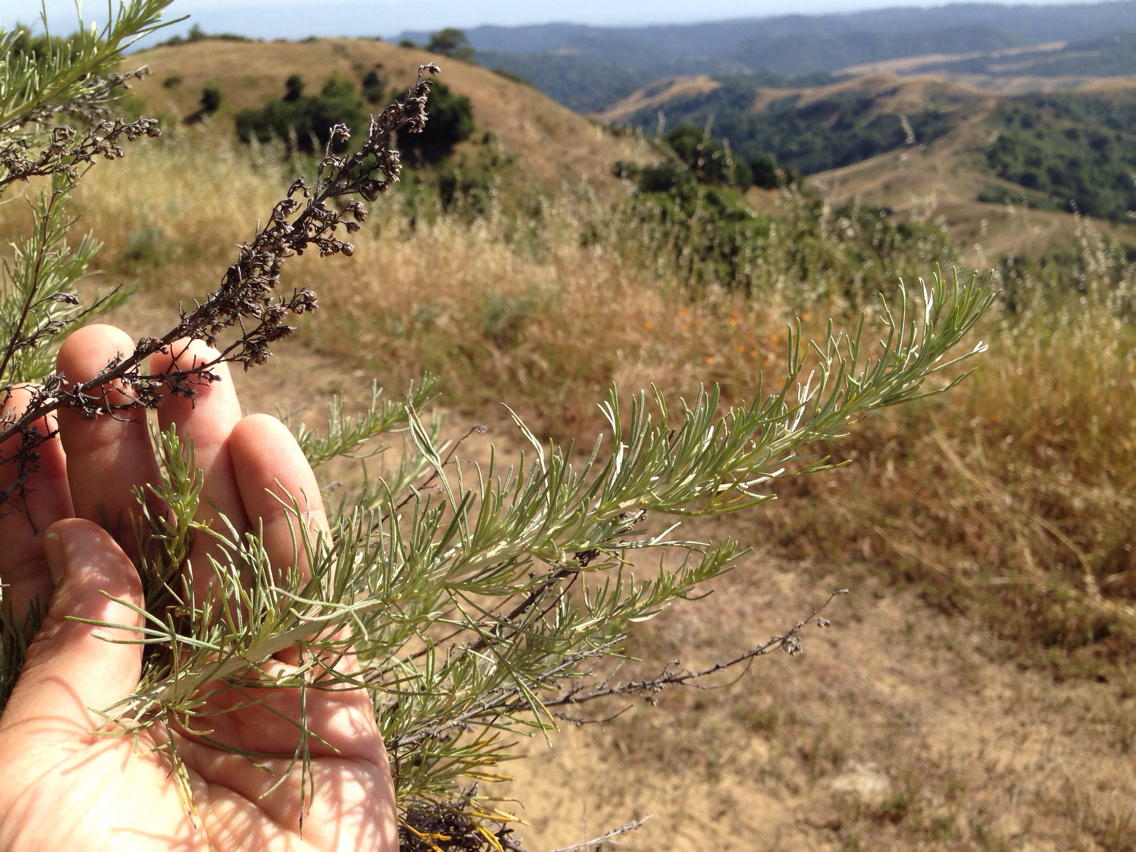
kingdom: Plantae
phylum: Tracheophyta
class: Magnoliopsida
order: Asterales
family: Asteraceae
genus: Artemisia
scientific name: Artemisia californica
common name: California sagebrush
